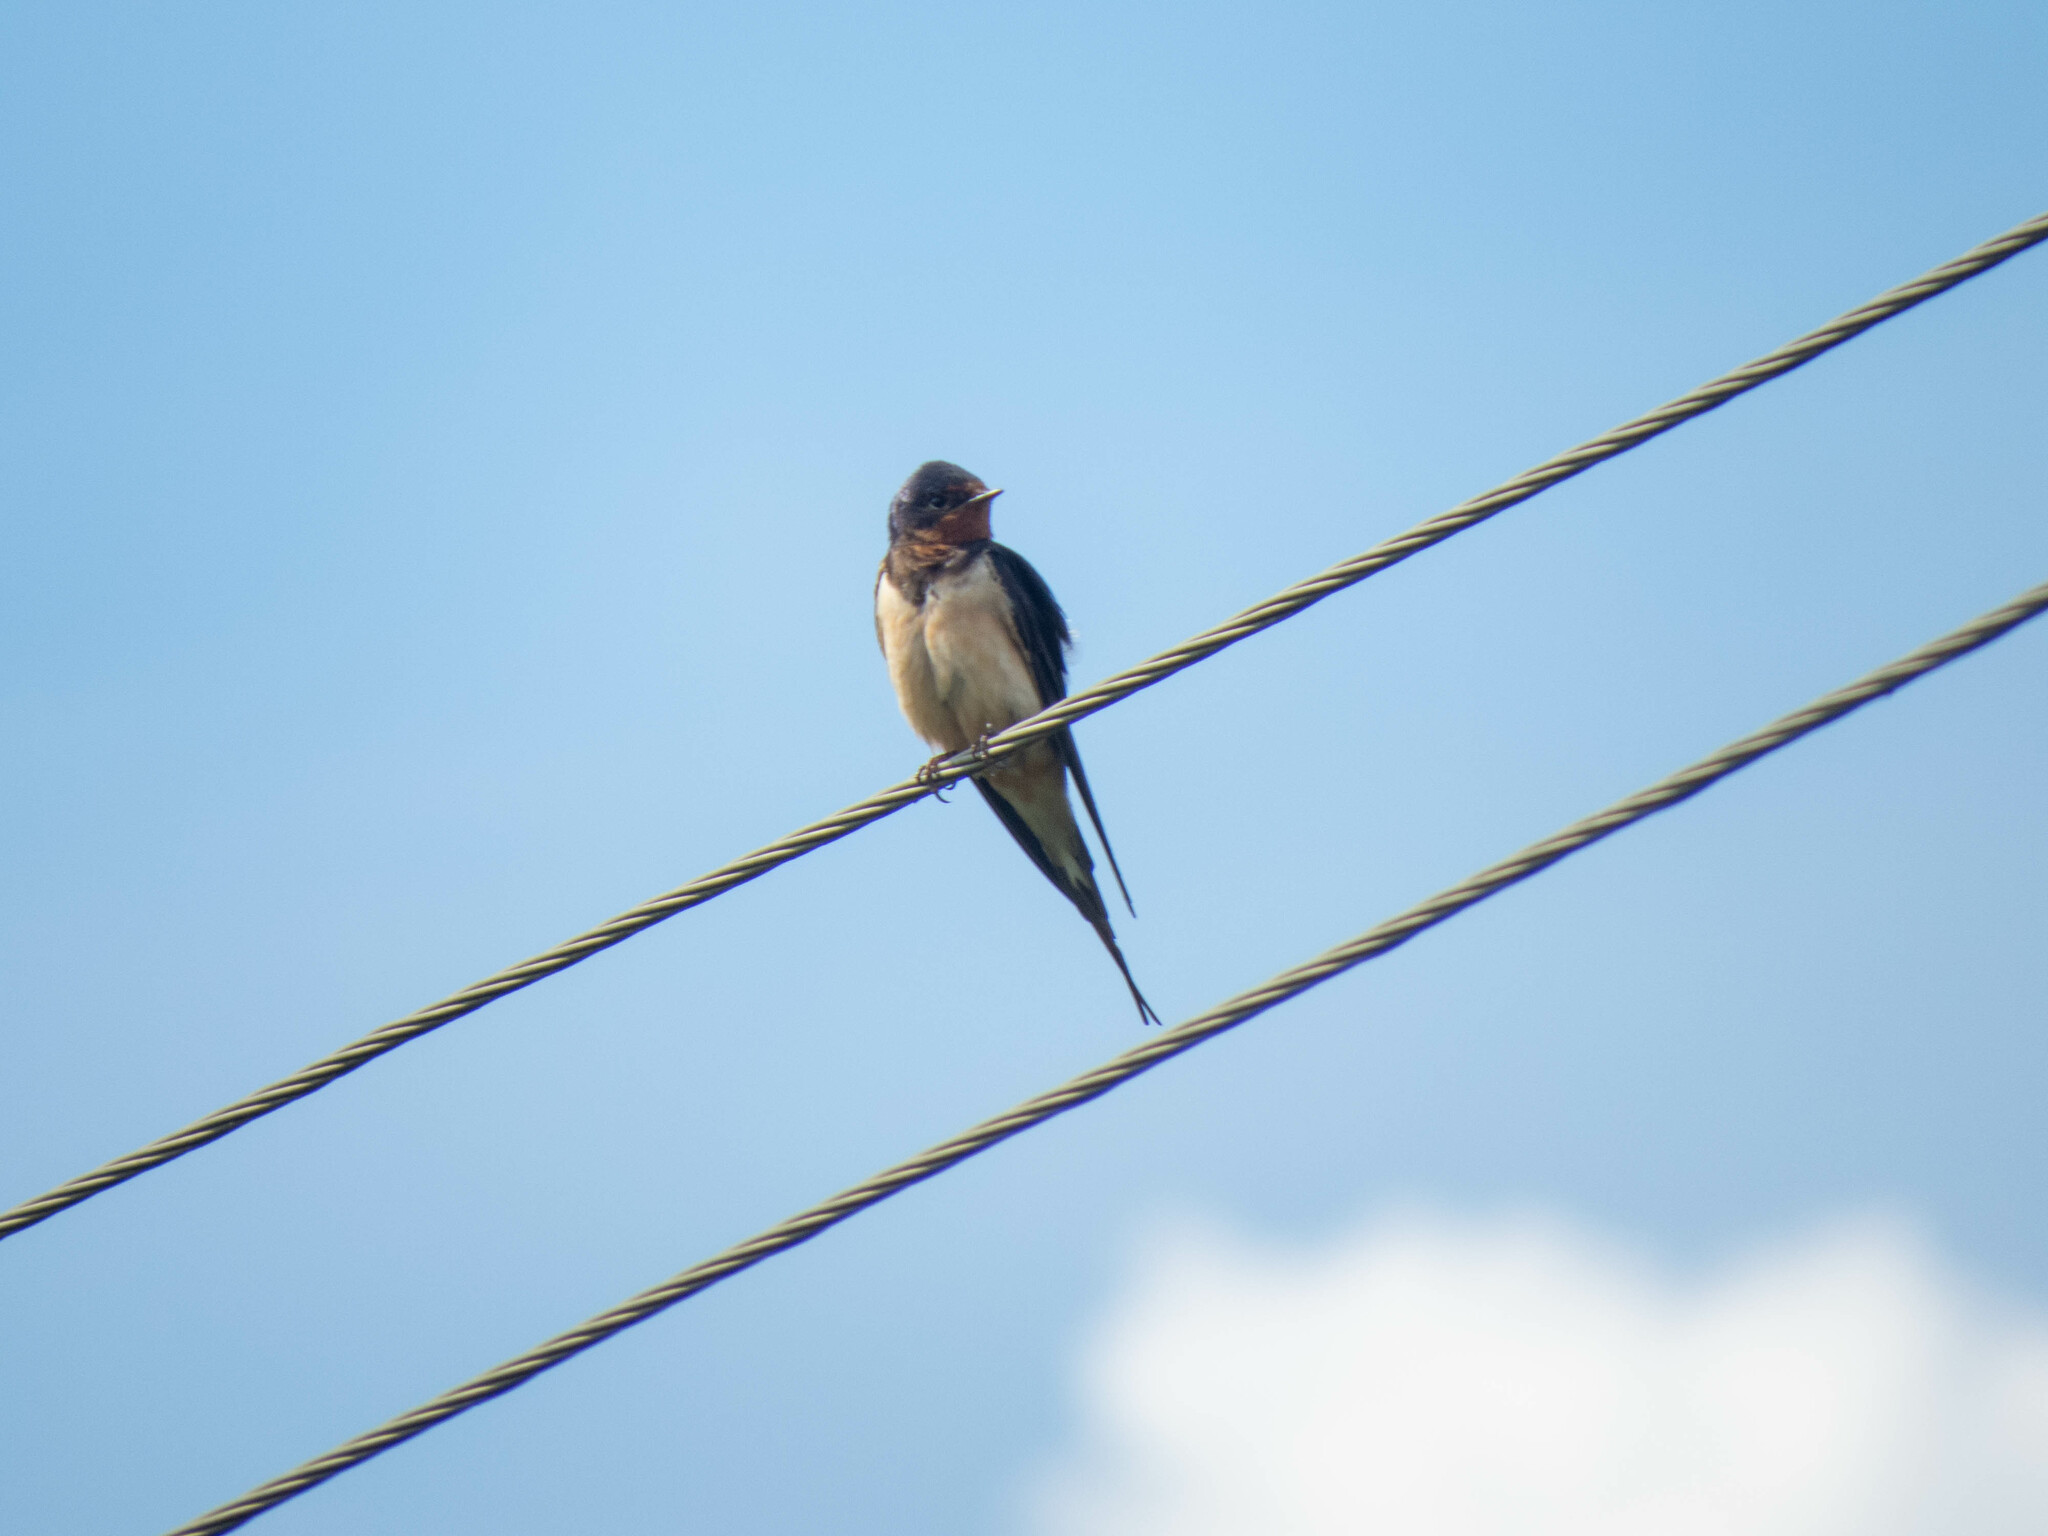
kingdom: Animalia
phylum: Chordata
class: Aves
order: Passeriformes
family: Hirundinidae
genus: Hirundo
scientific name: Hirundo rustica
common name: Barn swallow
